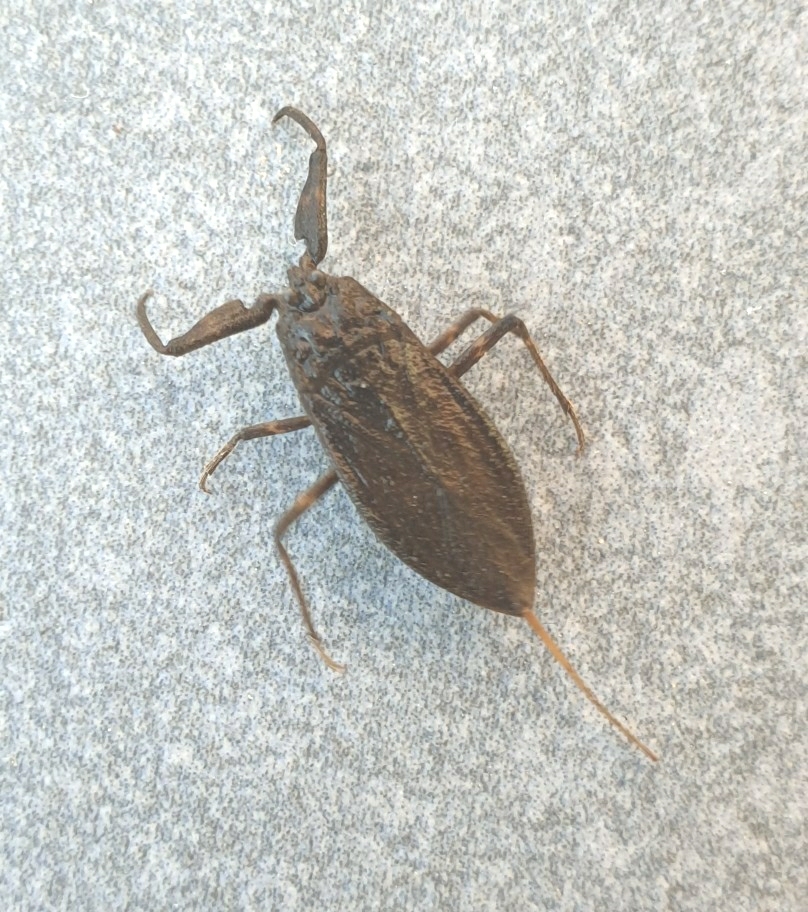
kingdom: Animalia
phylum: Arthropoda
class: Insecta
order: Hemiptera
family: Nepidae
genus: Nepa
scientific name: Nepa cinerea
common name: Water scorpion
